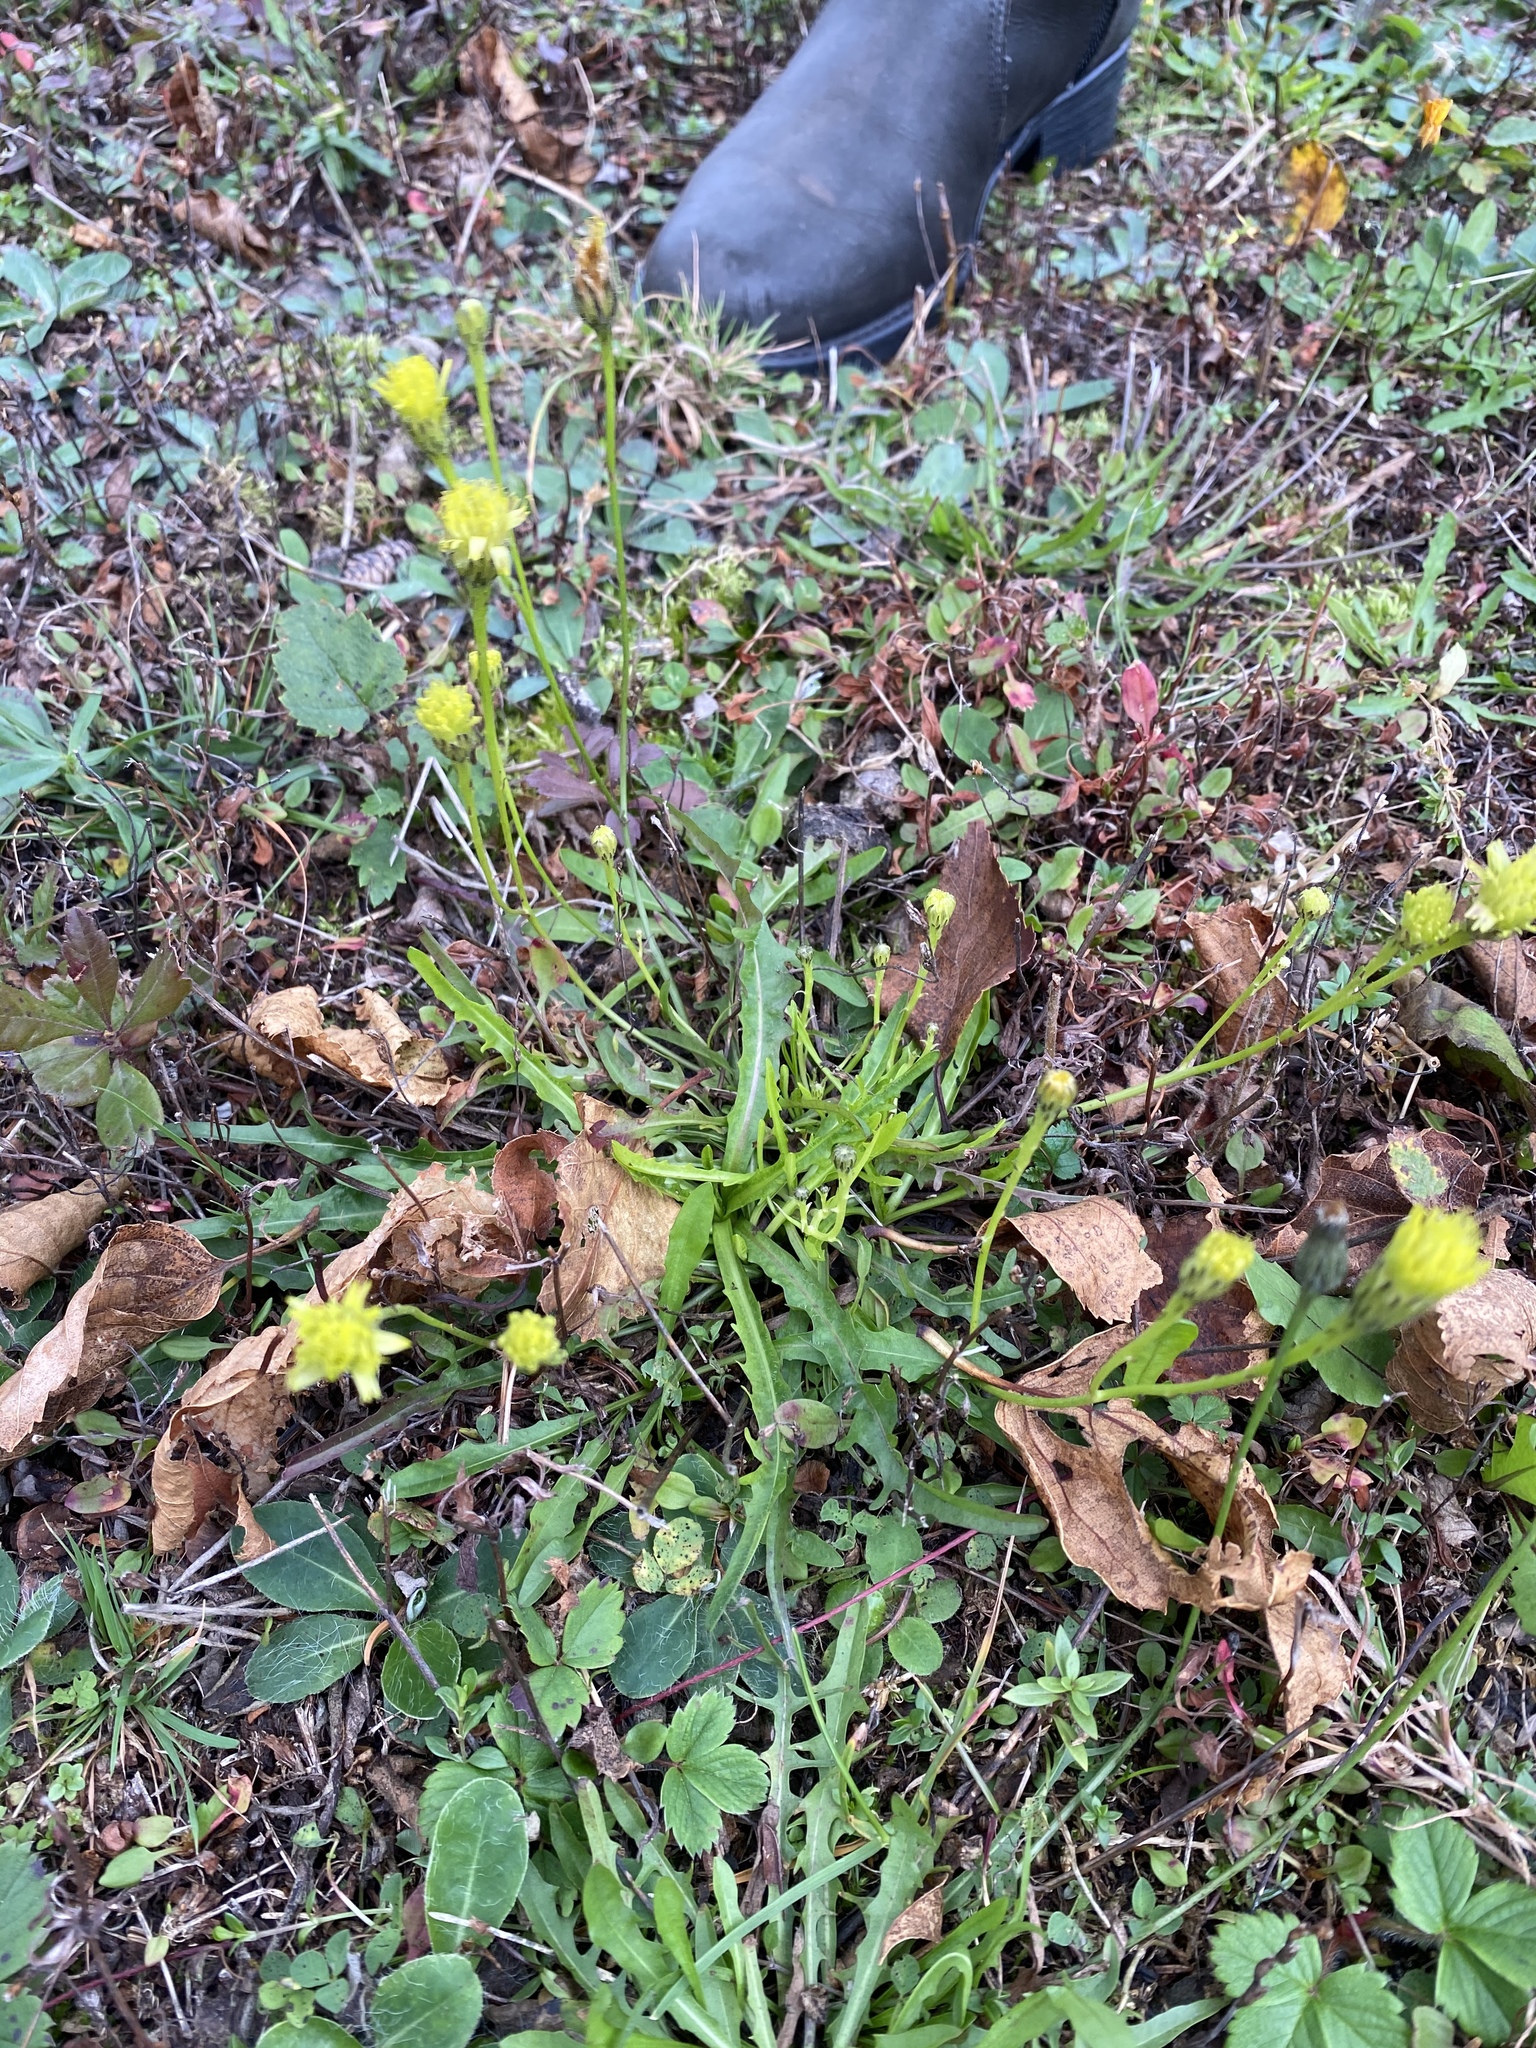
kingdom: Plantae
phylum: Tracheophyta
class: Magnoliopsida
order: Asterales
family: Asteraceae
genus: Scorzoneroides
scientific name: Scorzoneroides autumnalis
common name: Autumn hawkbit
